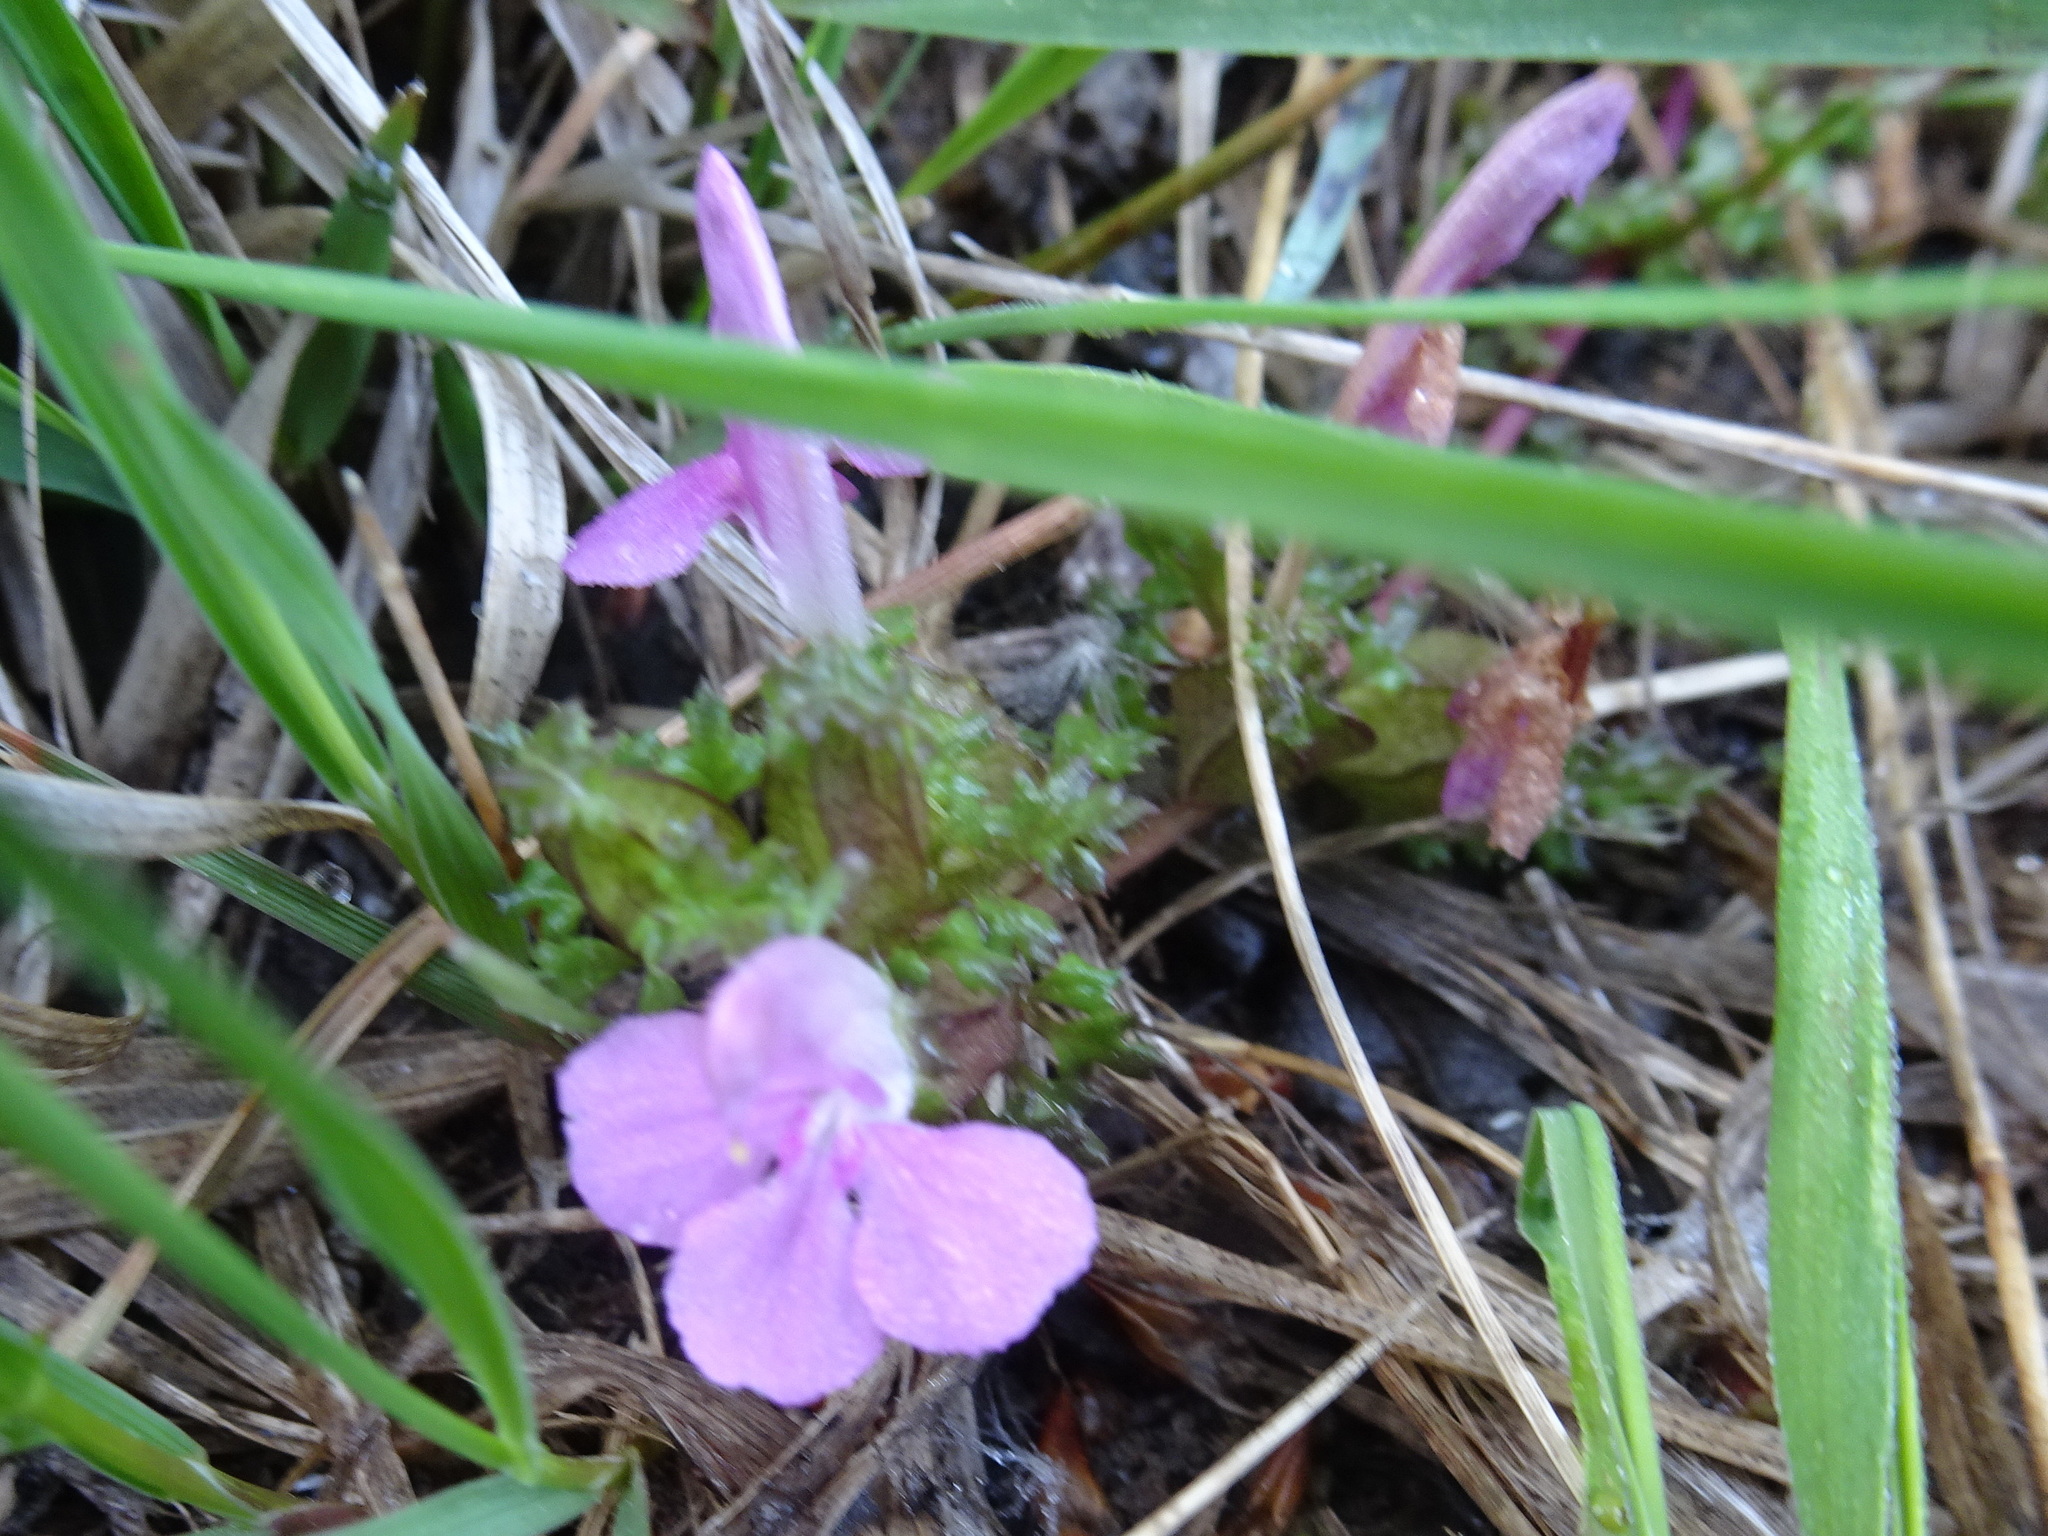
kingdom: Plantae
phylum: Tracheophyta
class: Magnoliopsida
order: Lamiales
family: Orobanchaceae
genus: Pedicularis
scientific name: Pedicularis sylvatica
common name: Lousewort
